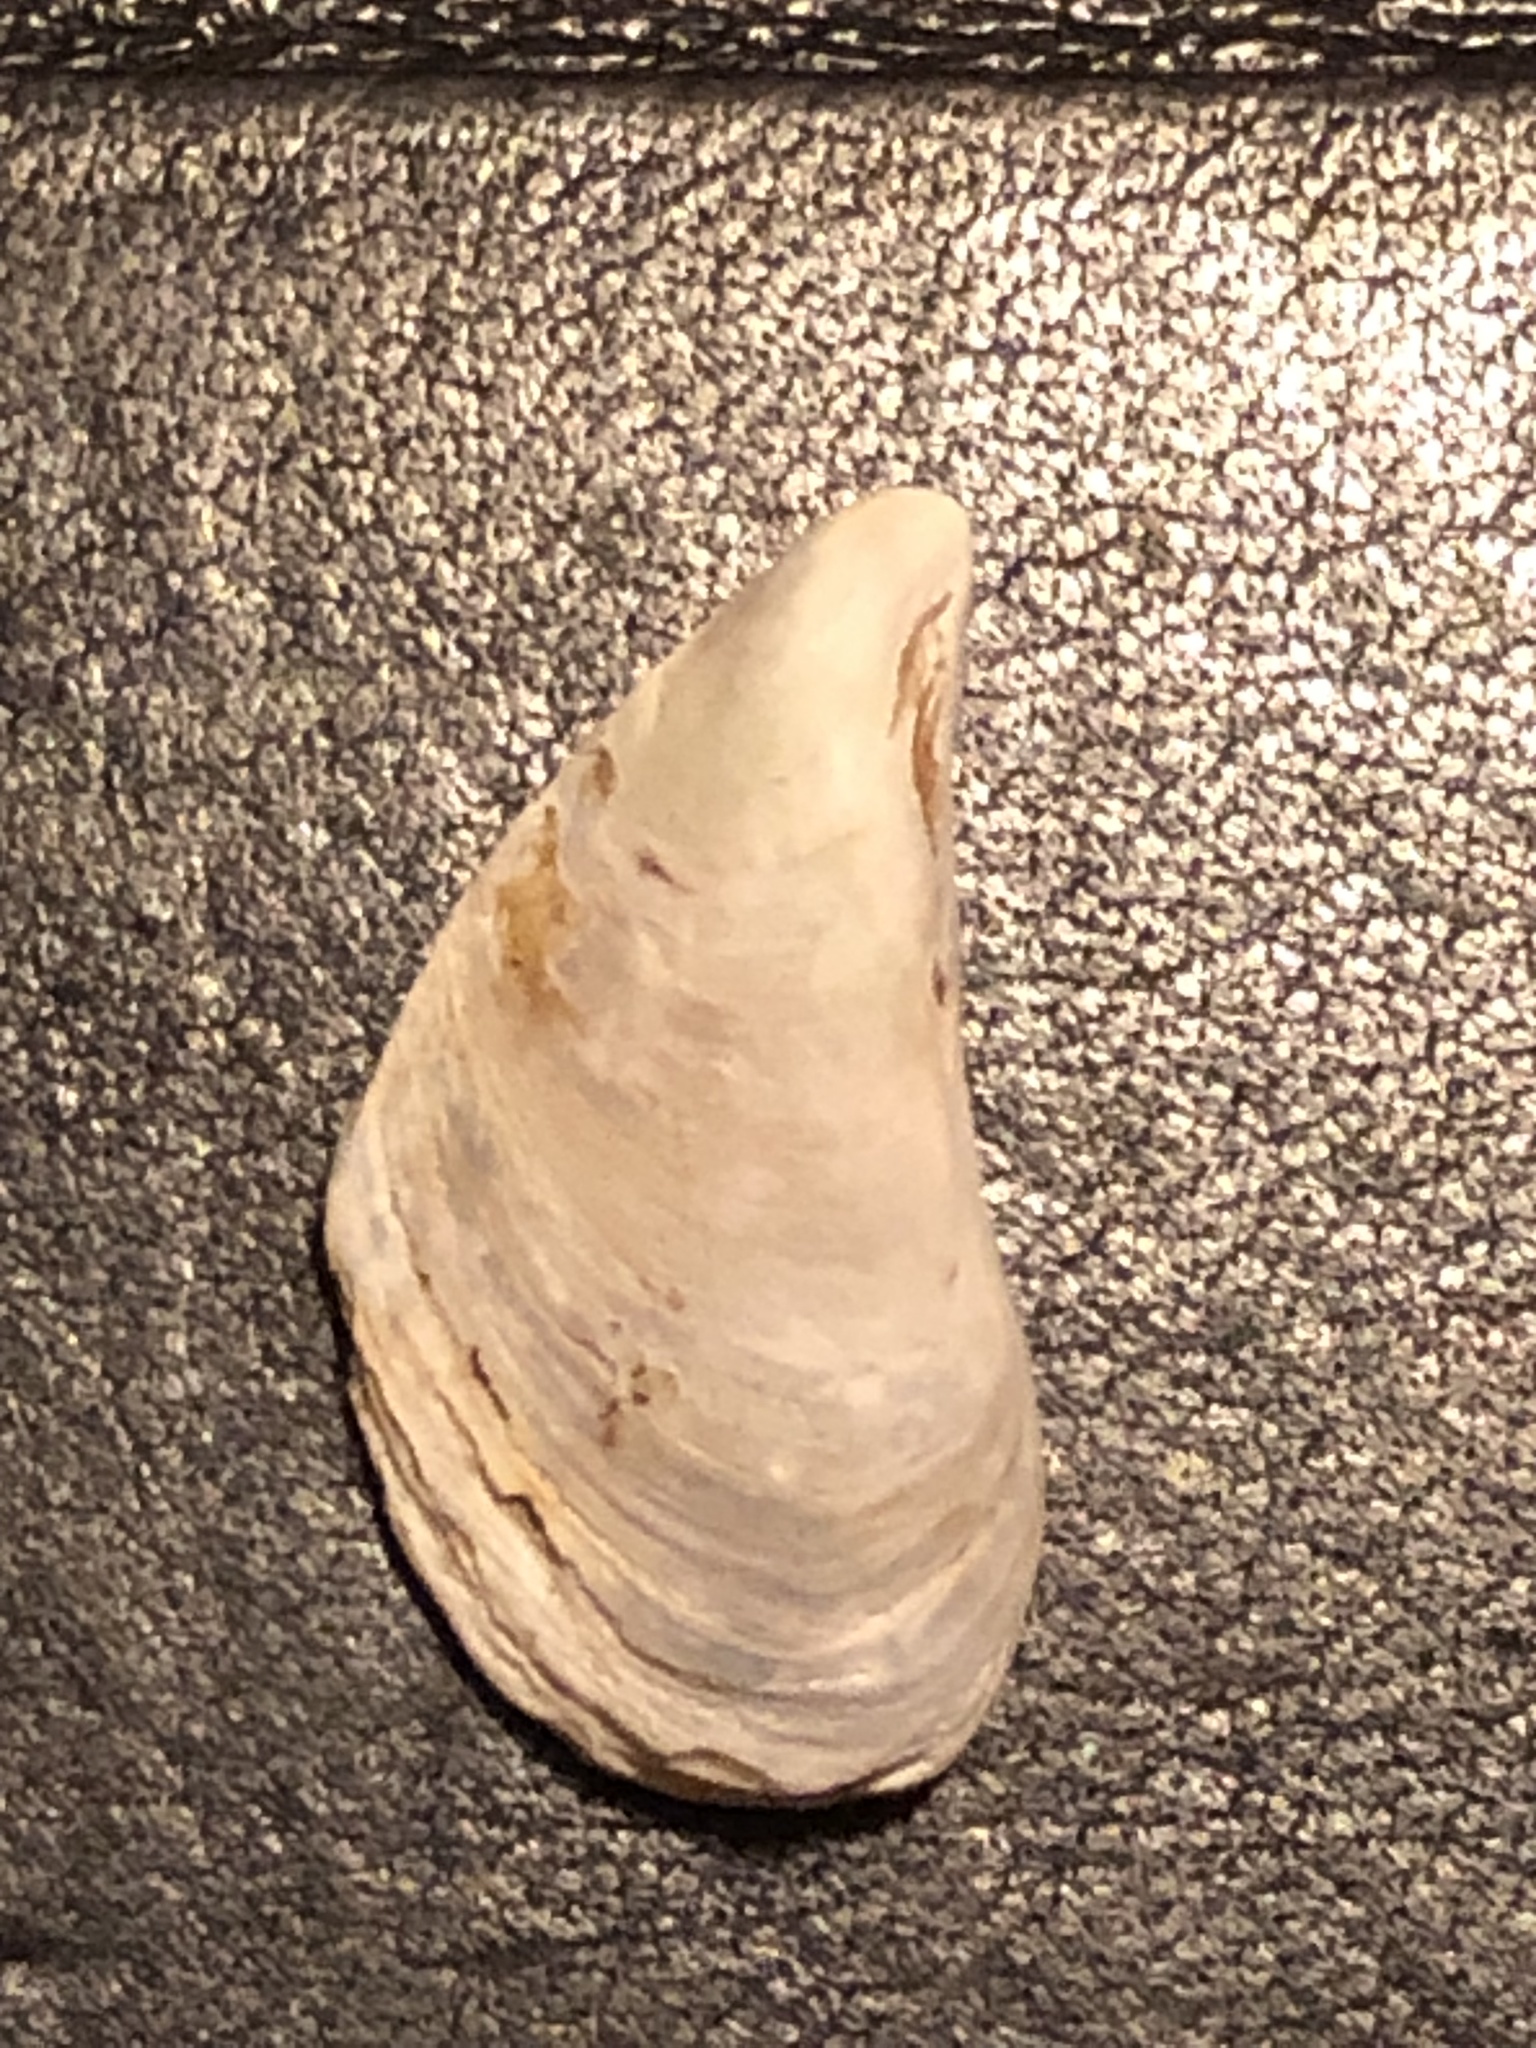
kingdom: Animalia
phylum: Mollusca
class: Bivalvia
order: Myida
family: Dreissenidae
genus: Dreissena
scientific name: Dreissena bugensis
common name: Quagga mussel
